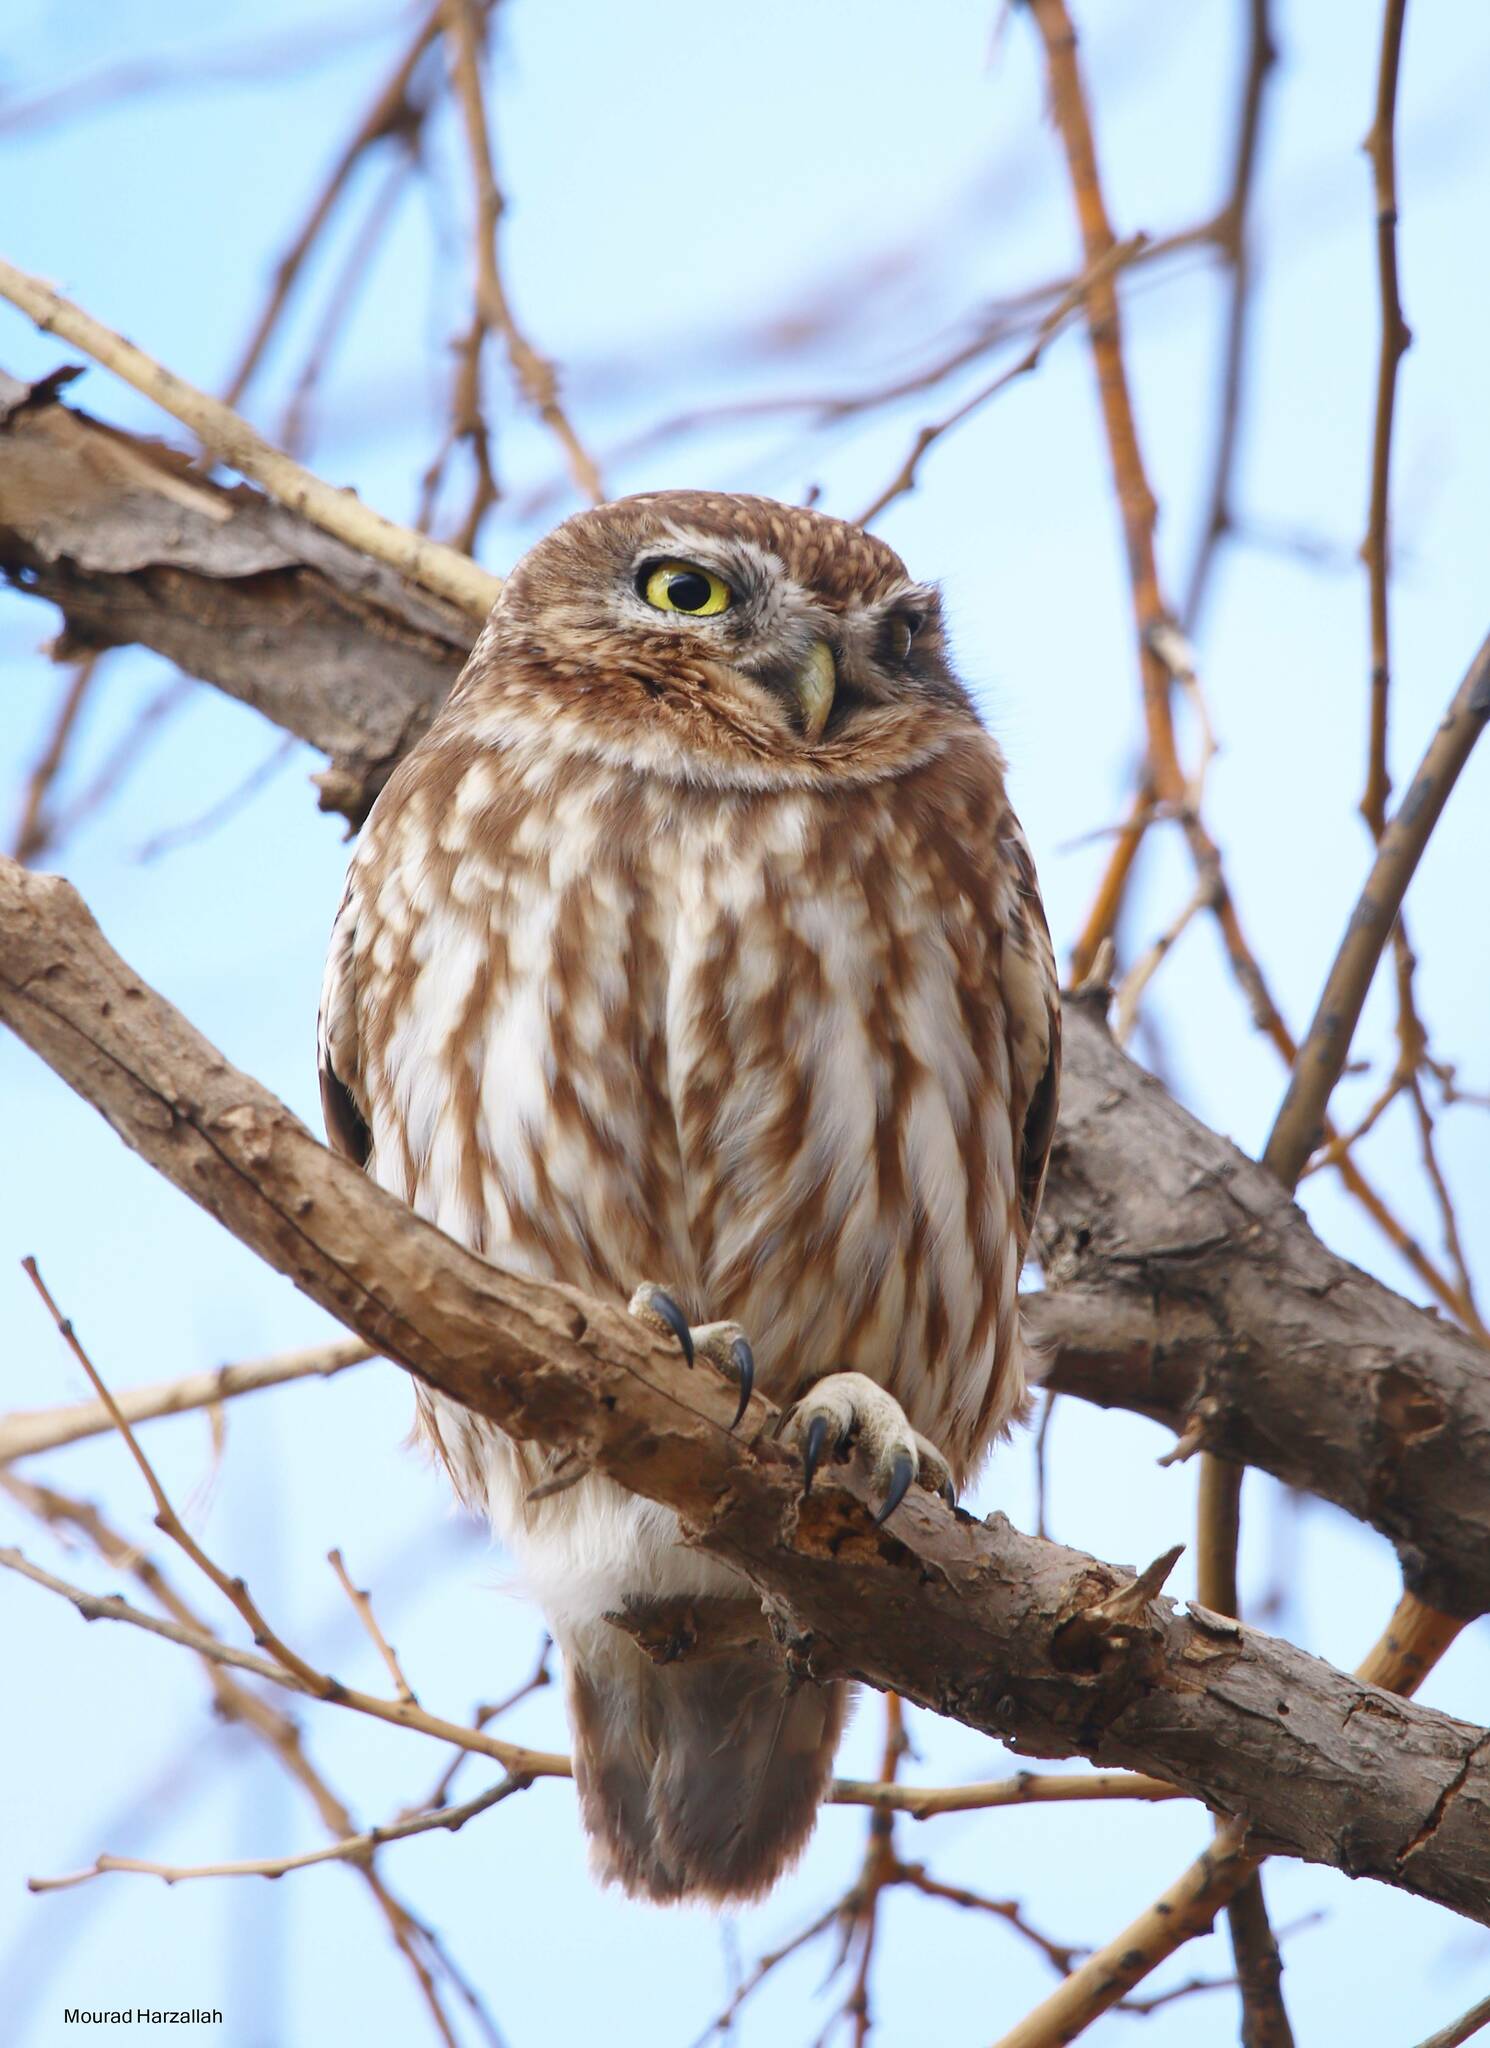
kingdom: Animalia
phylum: Chordata
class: Aves
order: Strigiformes
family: Strigidae
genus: Athene
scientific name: Athene noctua
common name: Little owl
